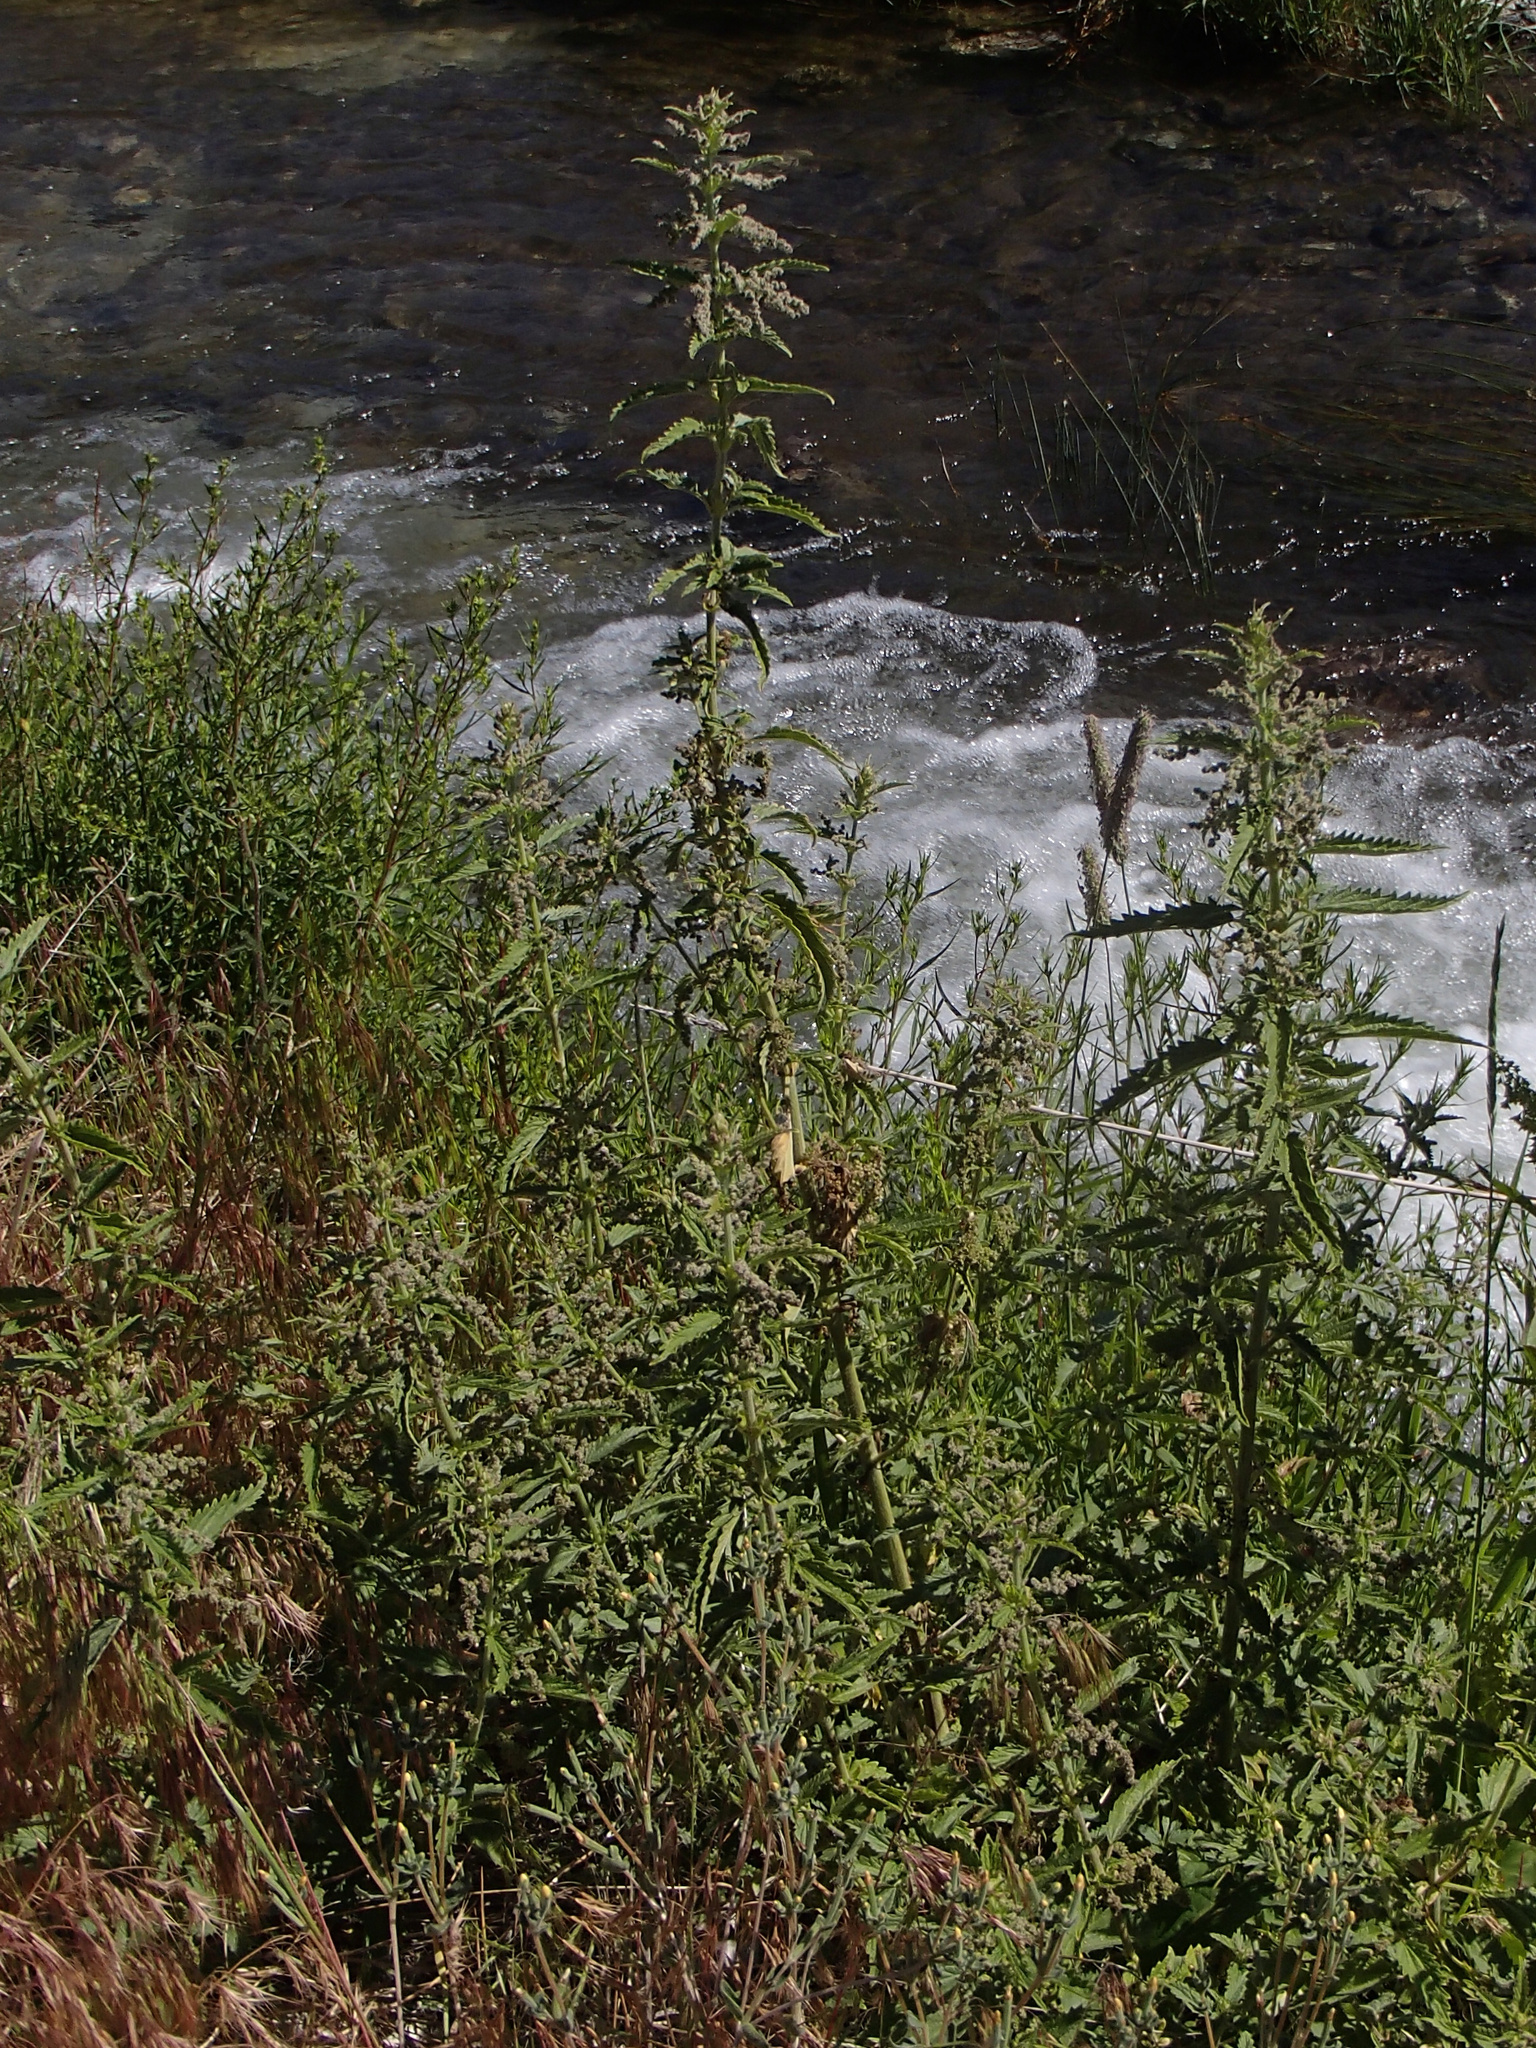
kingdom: Plantae
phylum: Tracheophyta
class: Magnoliopsida
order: Rosales
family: Urticaceae
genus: Urtica
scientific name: Urtica gracilis
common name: Slender stinging nettle
